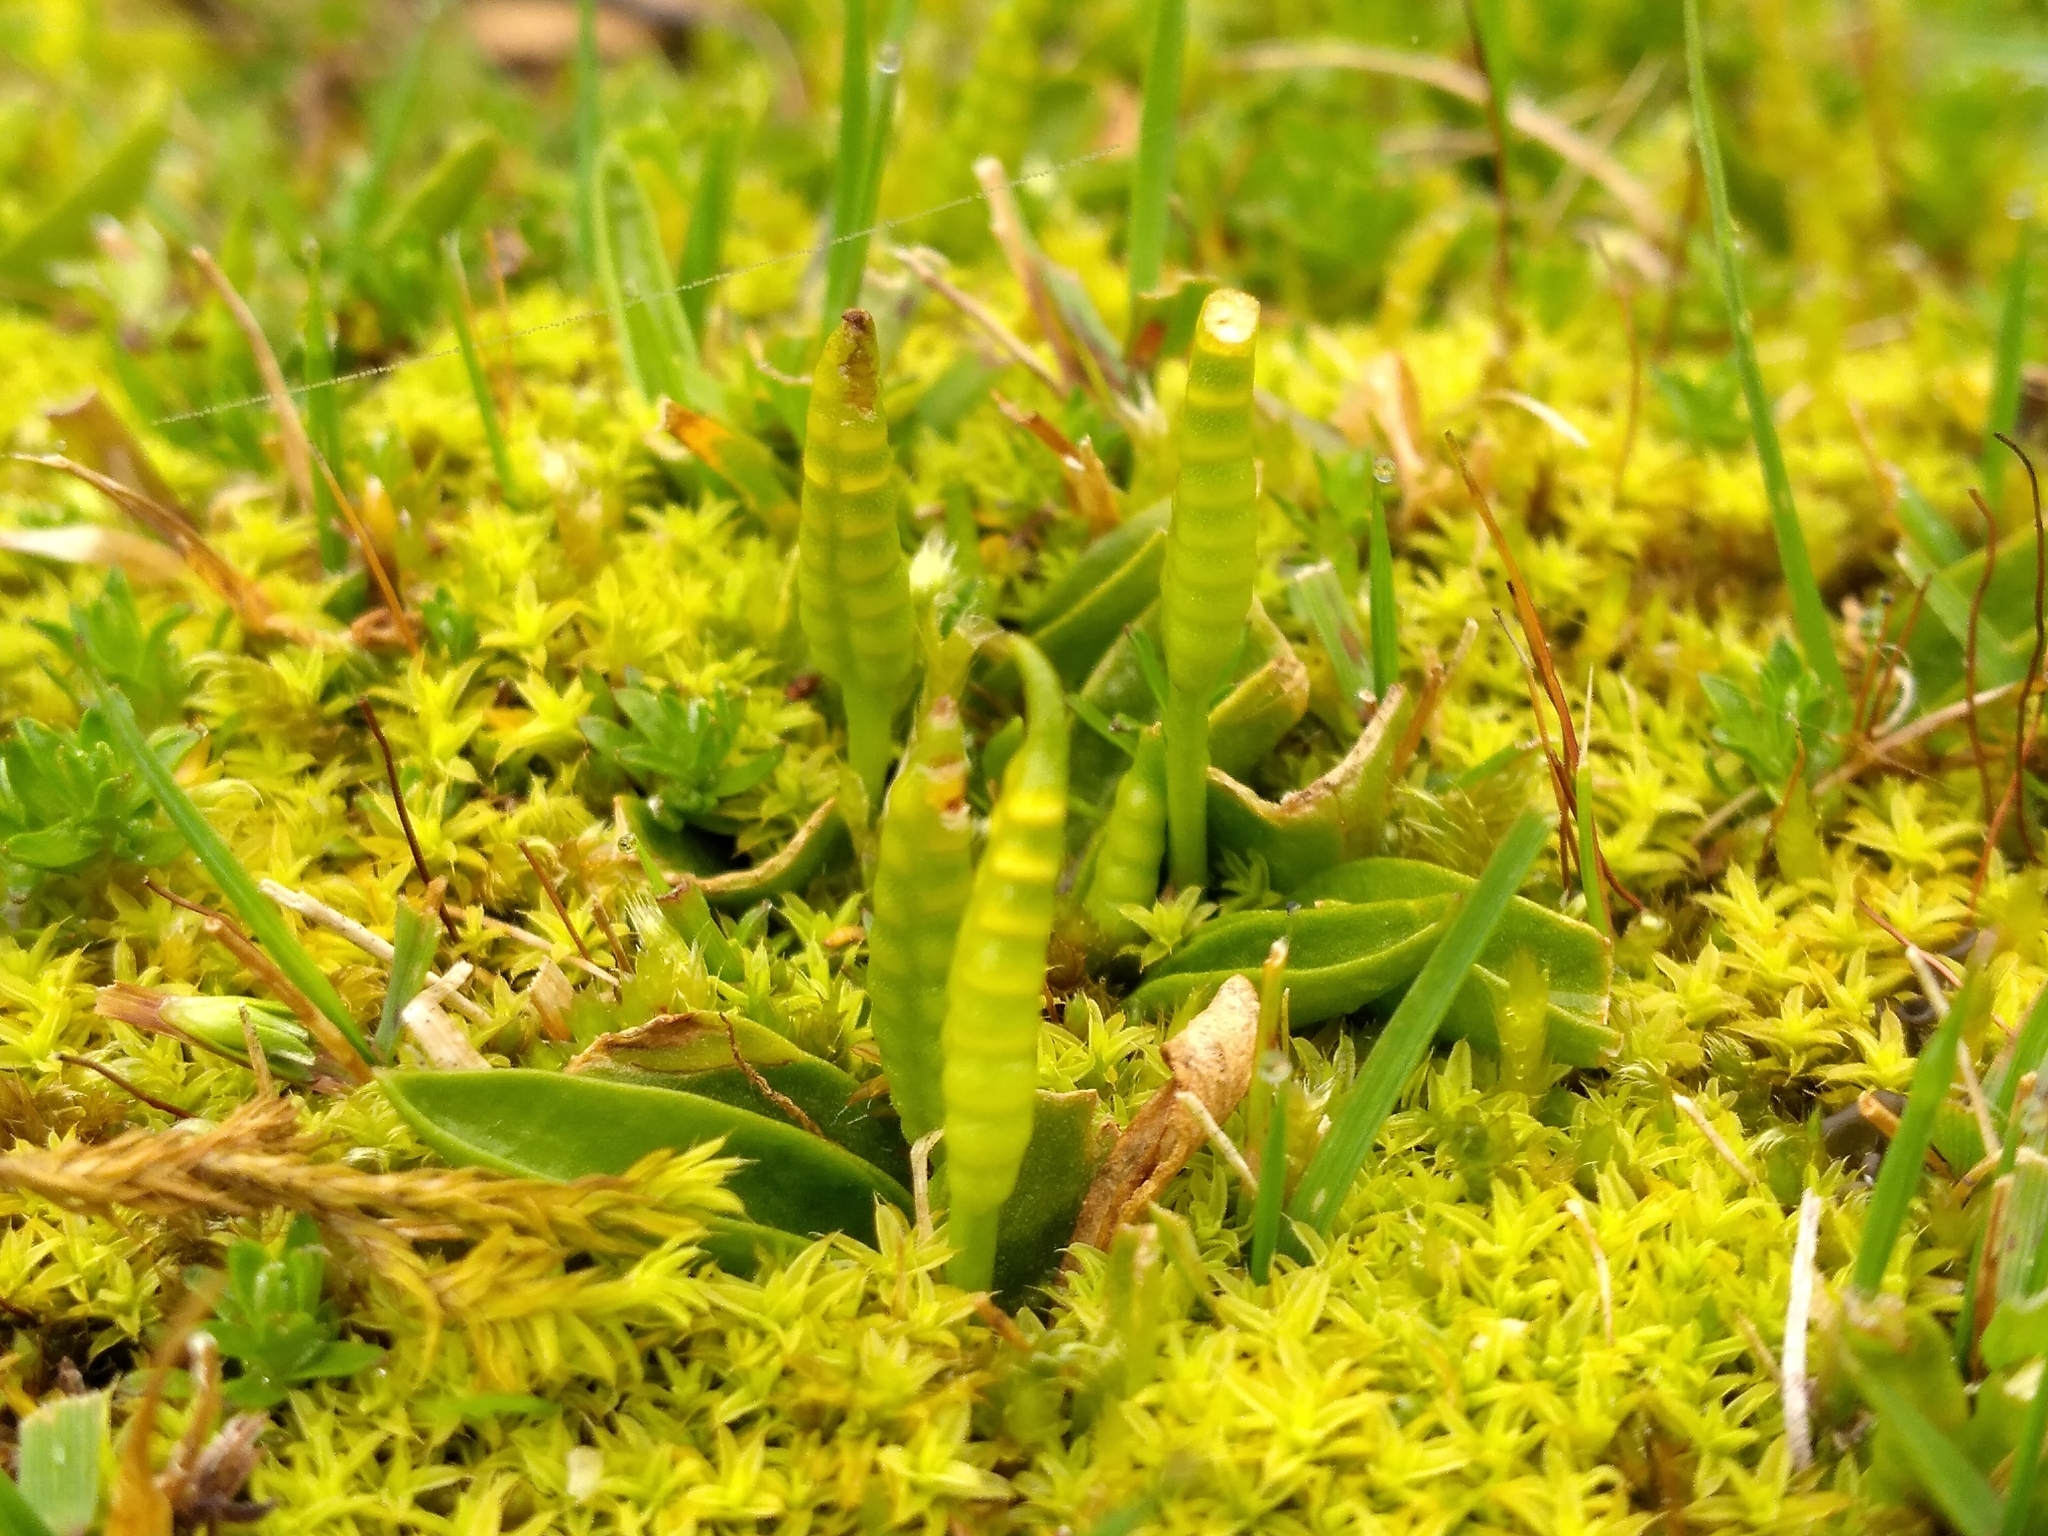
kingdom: Plantae
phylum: Tracheophyta
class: Polypodiopsida
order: Ophioglossales
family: Ophioglossaceae
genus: Ophioglossum
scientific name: Ophioglossum coriaceum
